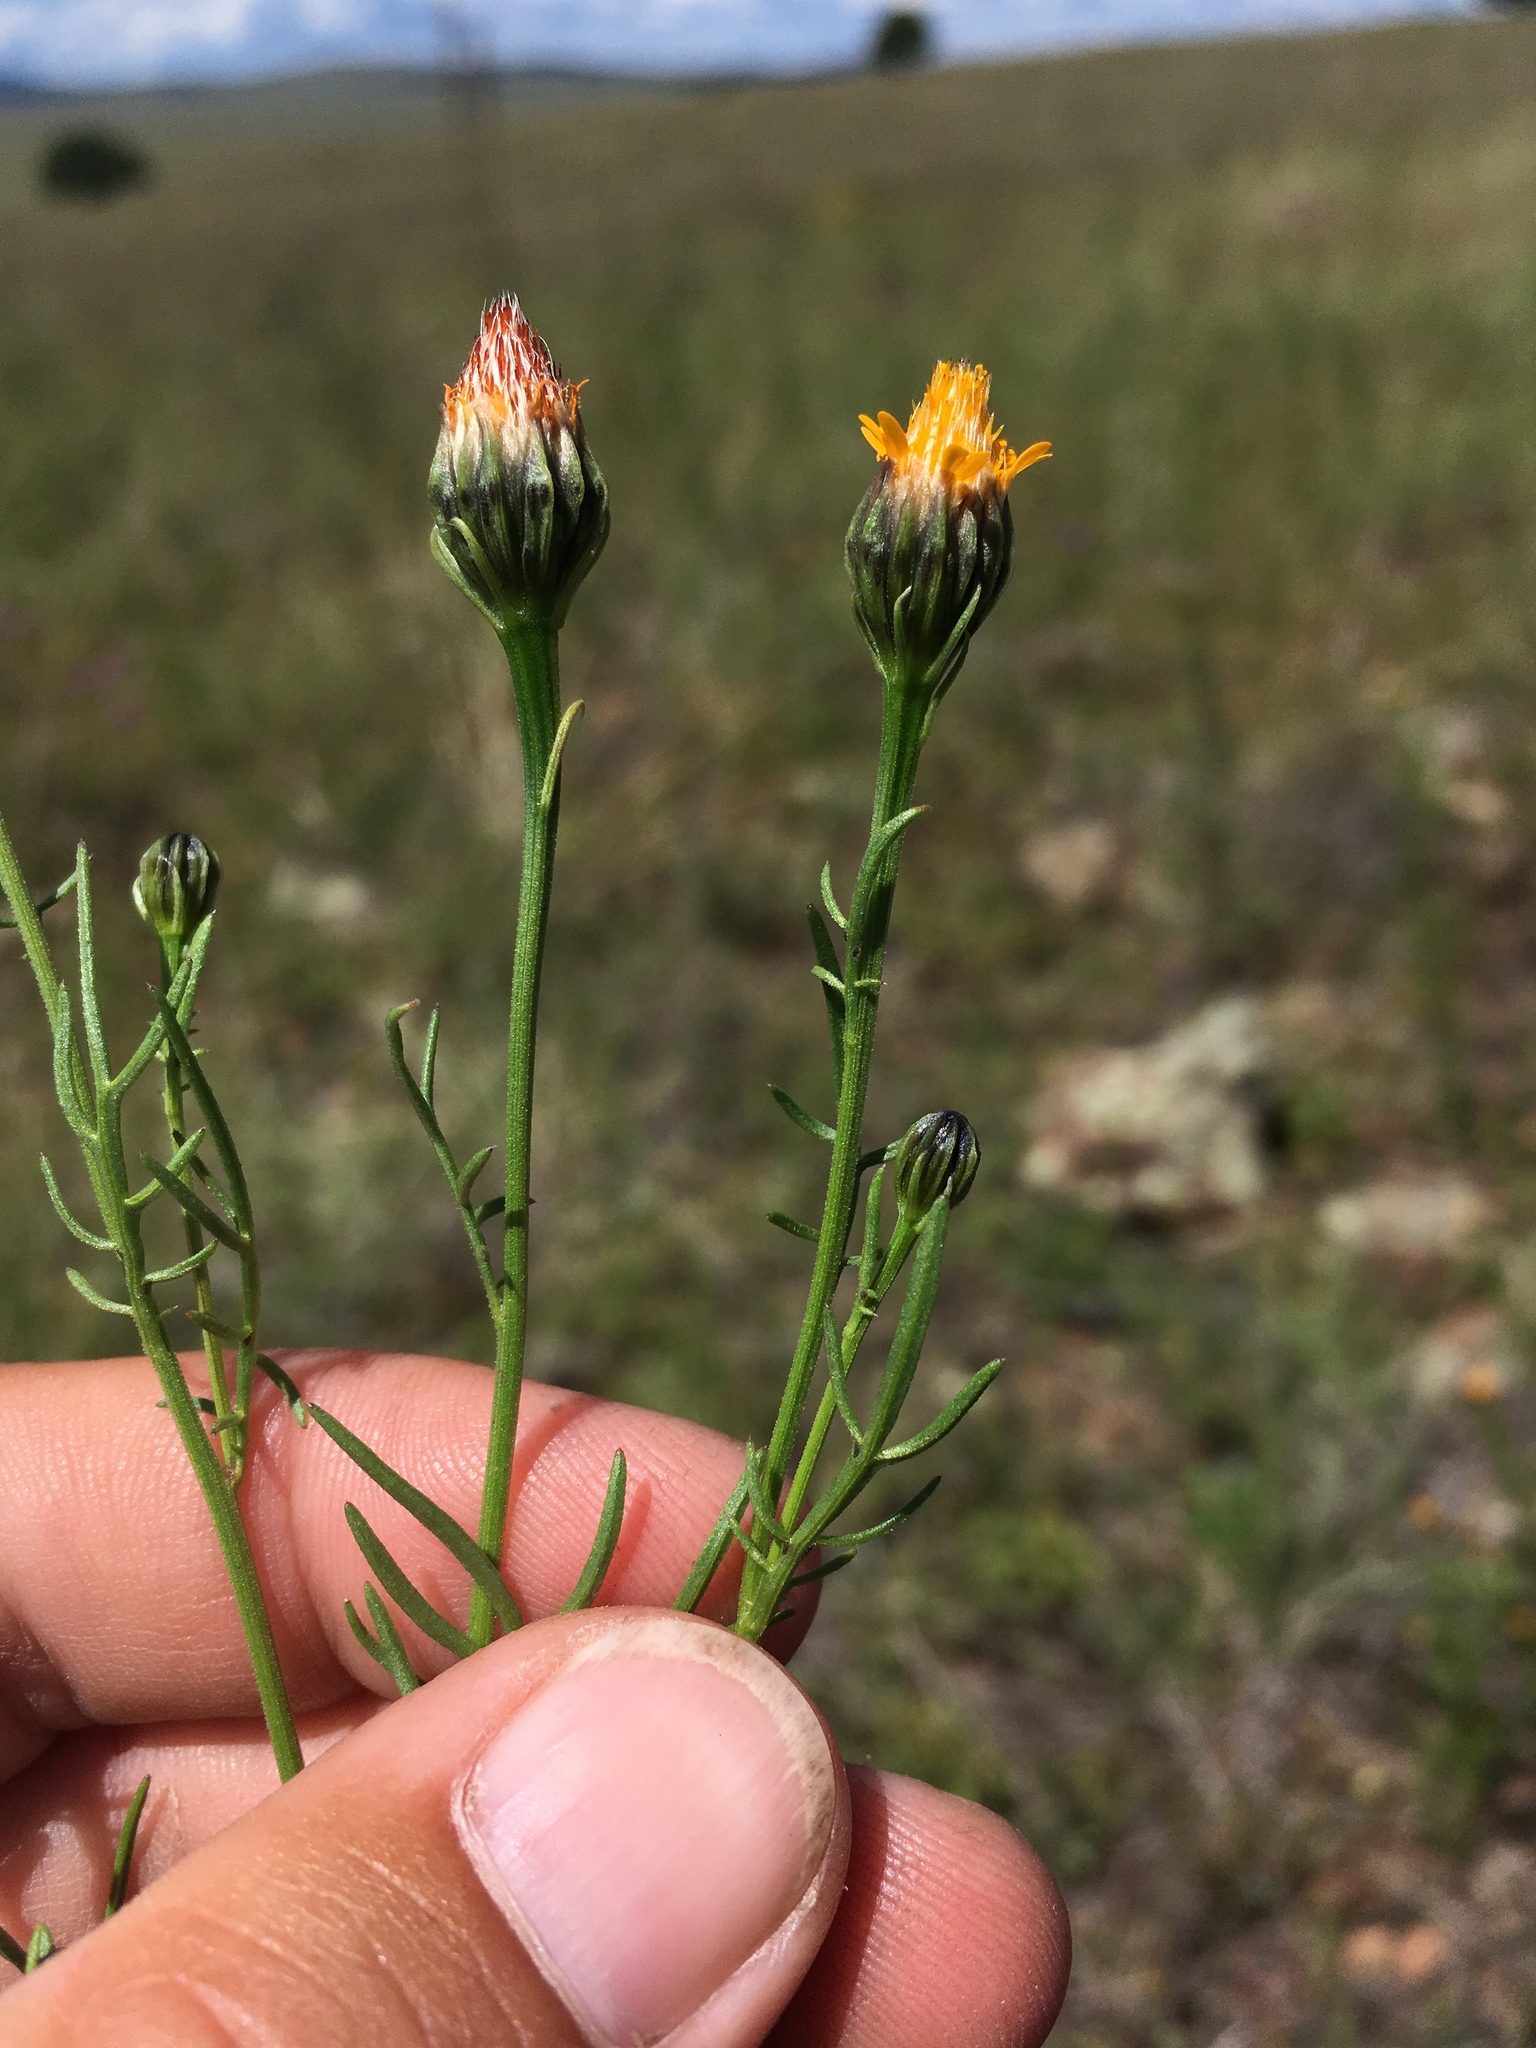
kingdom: Plantae
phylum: Tracheophyta
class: Magnoliopsida
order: Asterales
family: Asteraceae
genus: Adenophyllum
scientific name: Adenophyllum wrightii
